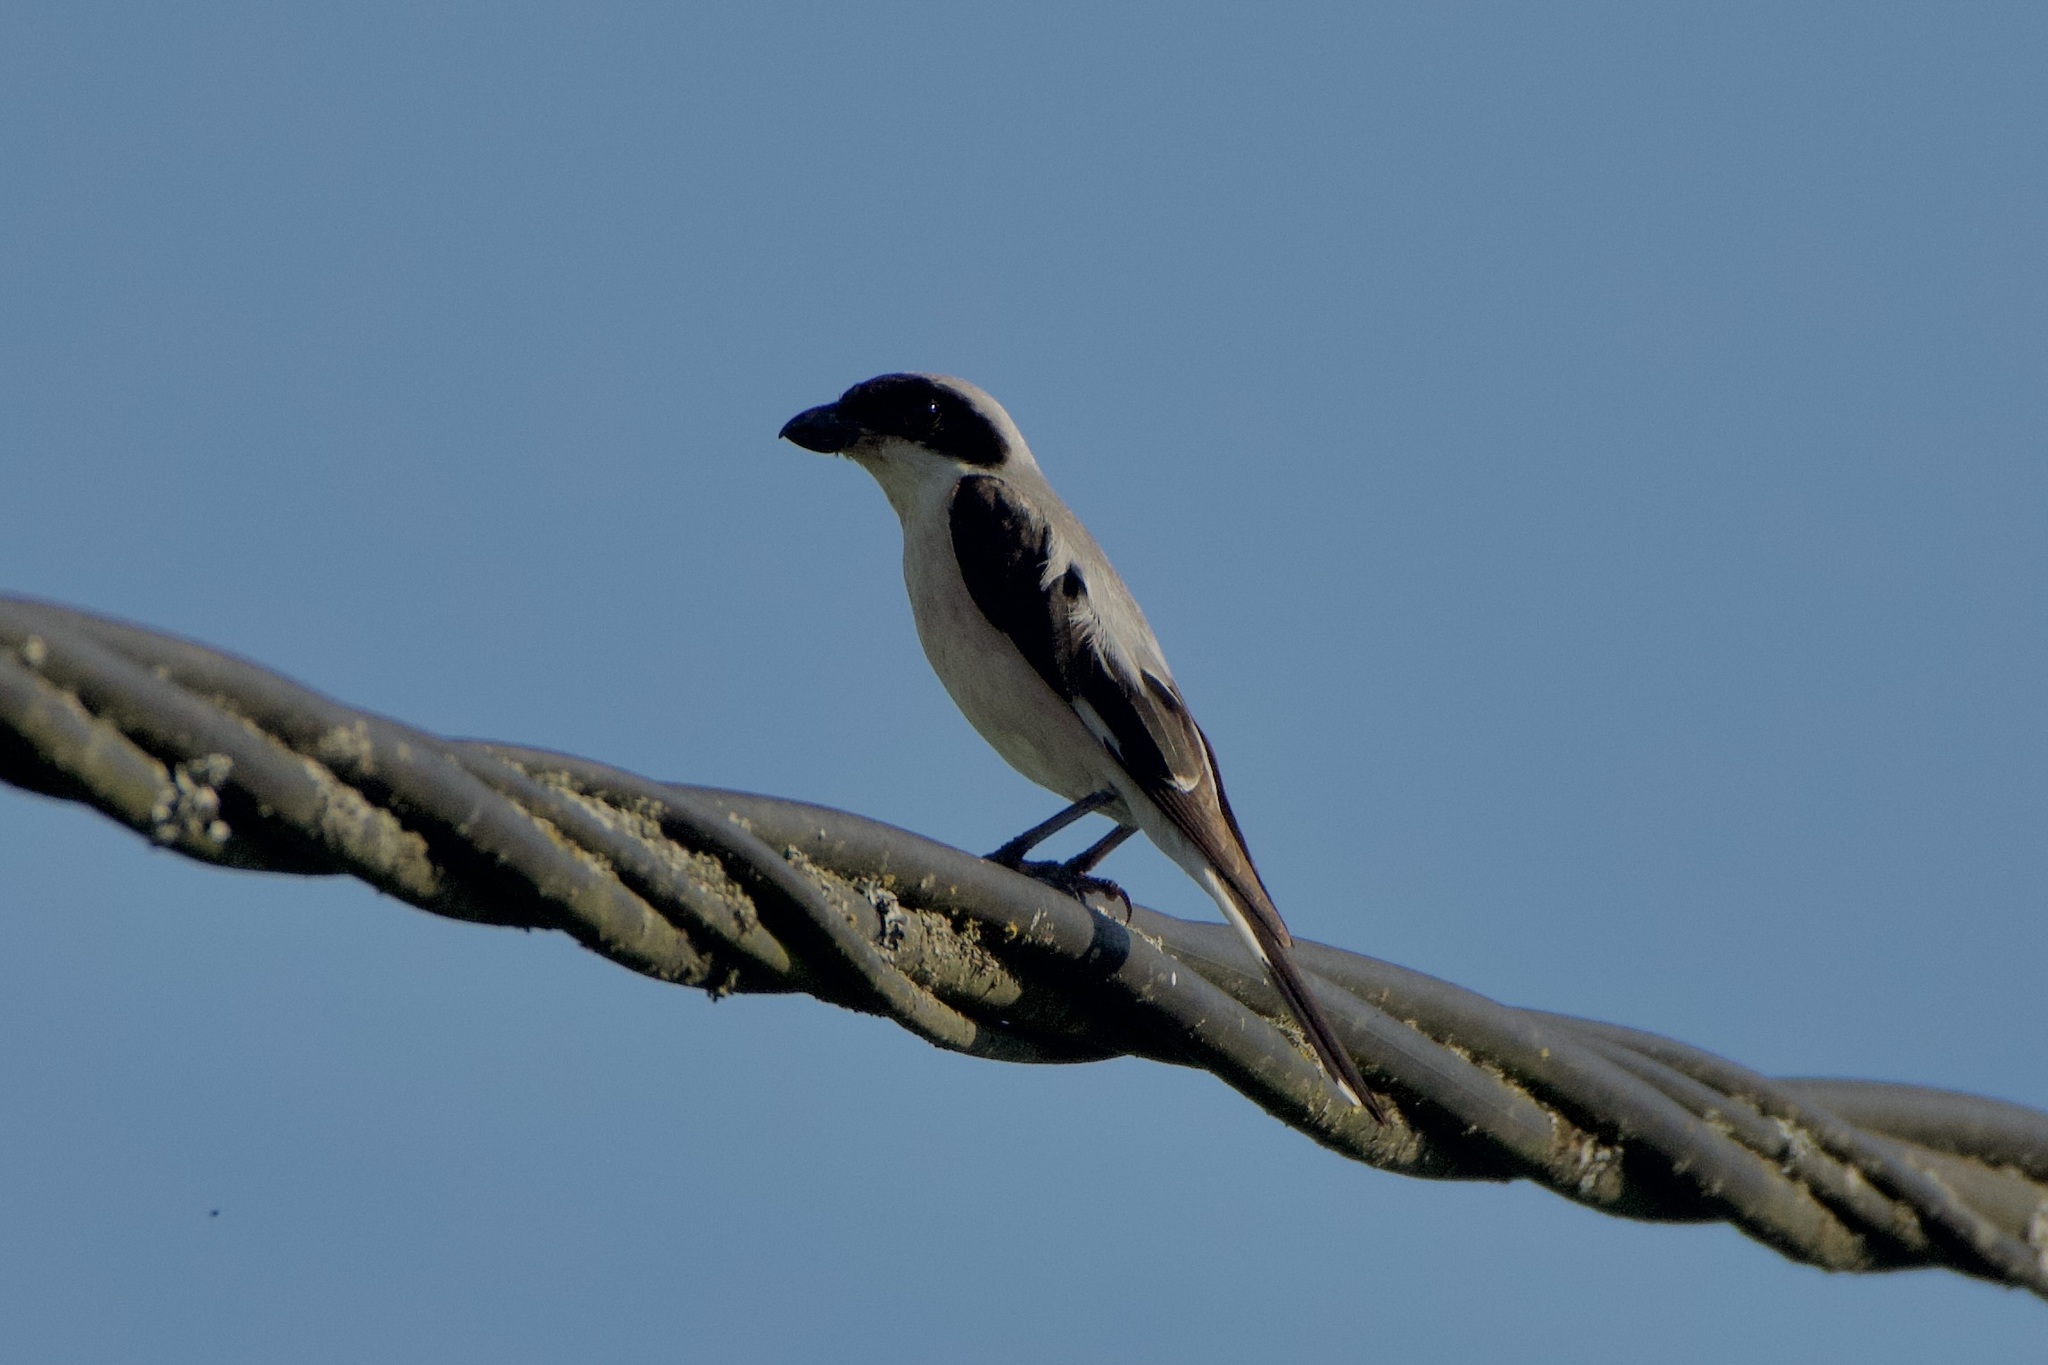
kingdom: Animalia
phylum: Chordata
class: Aves
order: Passeriformes
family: Laniidae
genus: Lanius
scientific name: Lanius minor
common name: Lesser grey shrike
